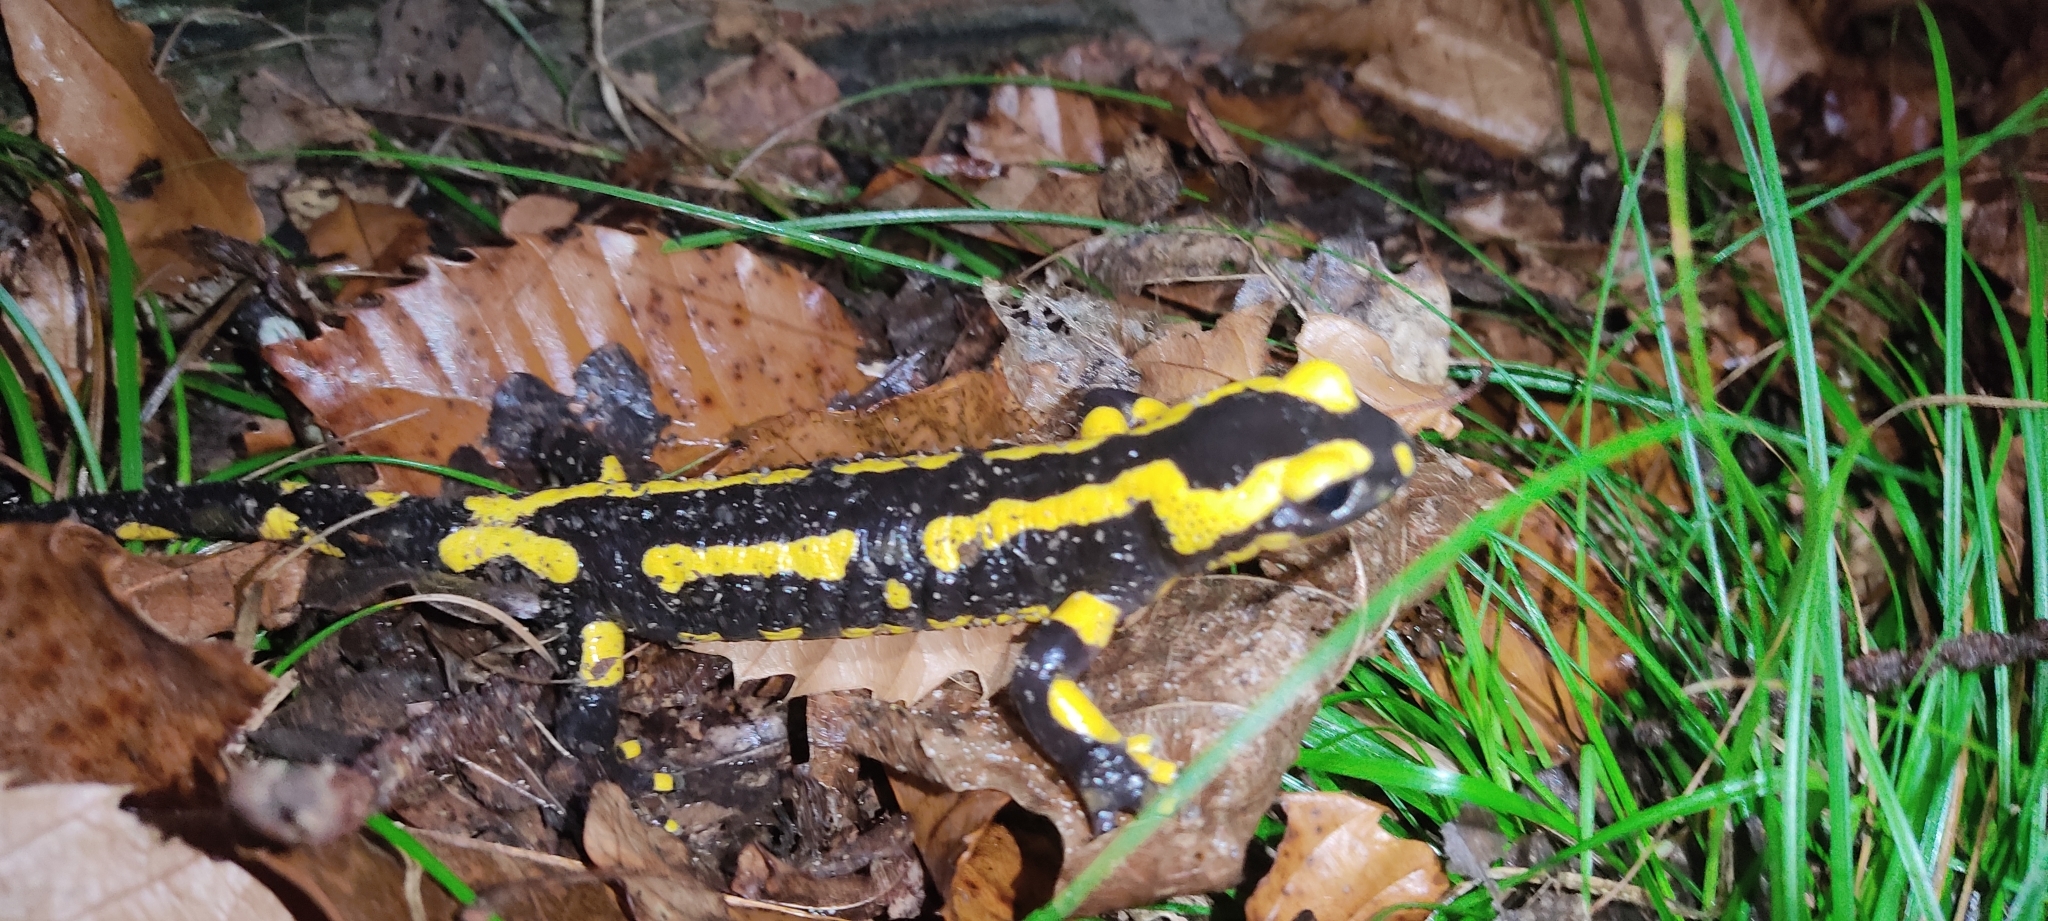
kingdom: Animalia
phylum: Chordata
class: Amphibia
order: Caudata
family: Salamandridae
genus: Salamandra
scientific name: Salamandra salamandra
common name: Fire salamander
